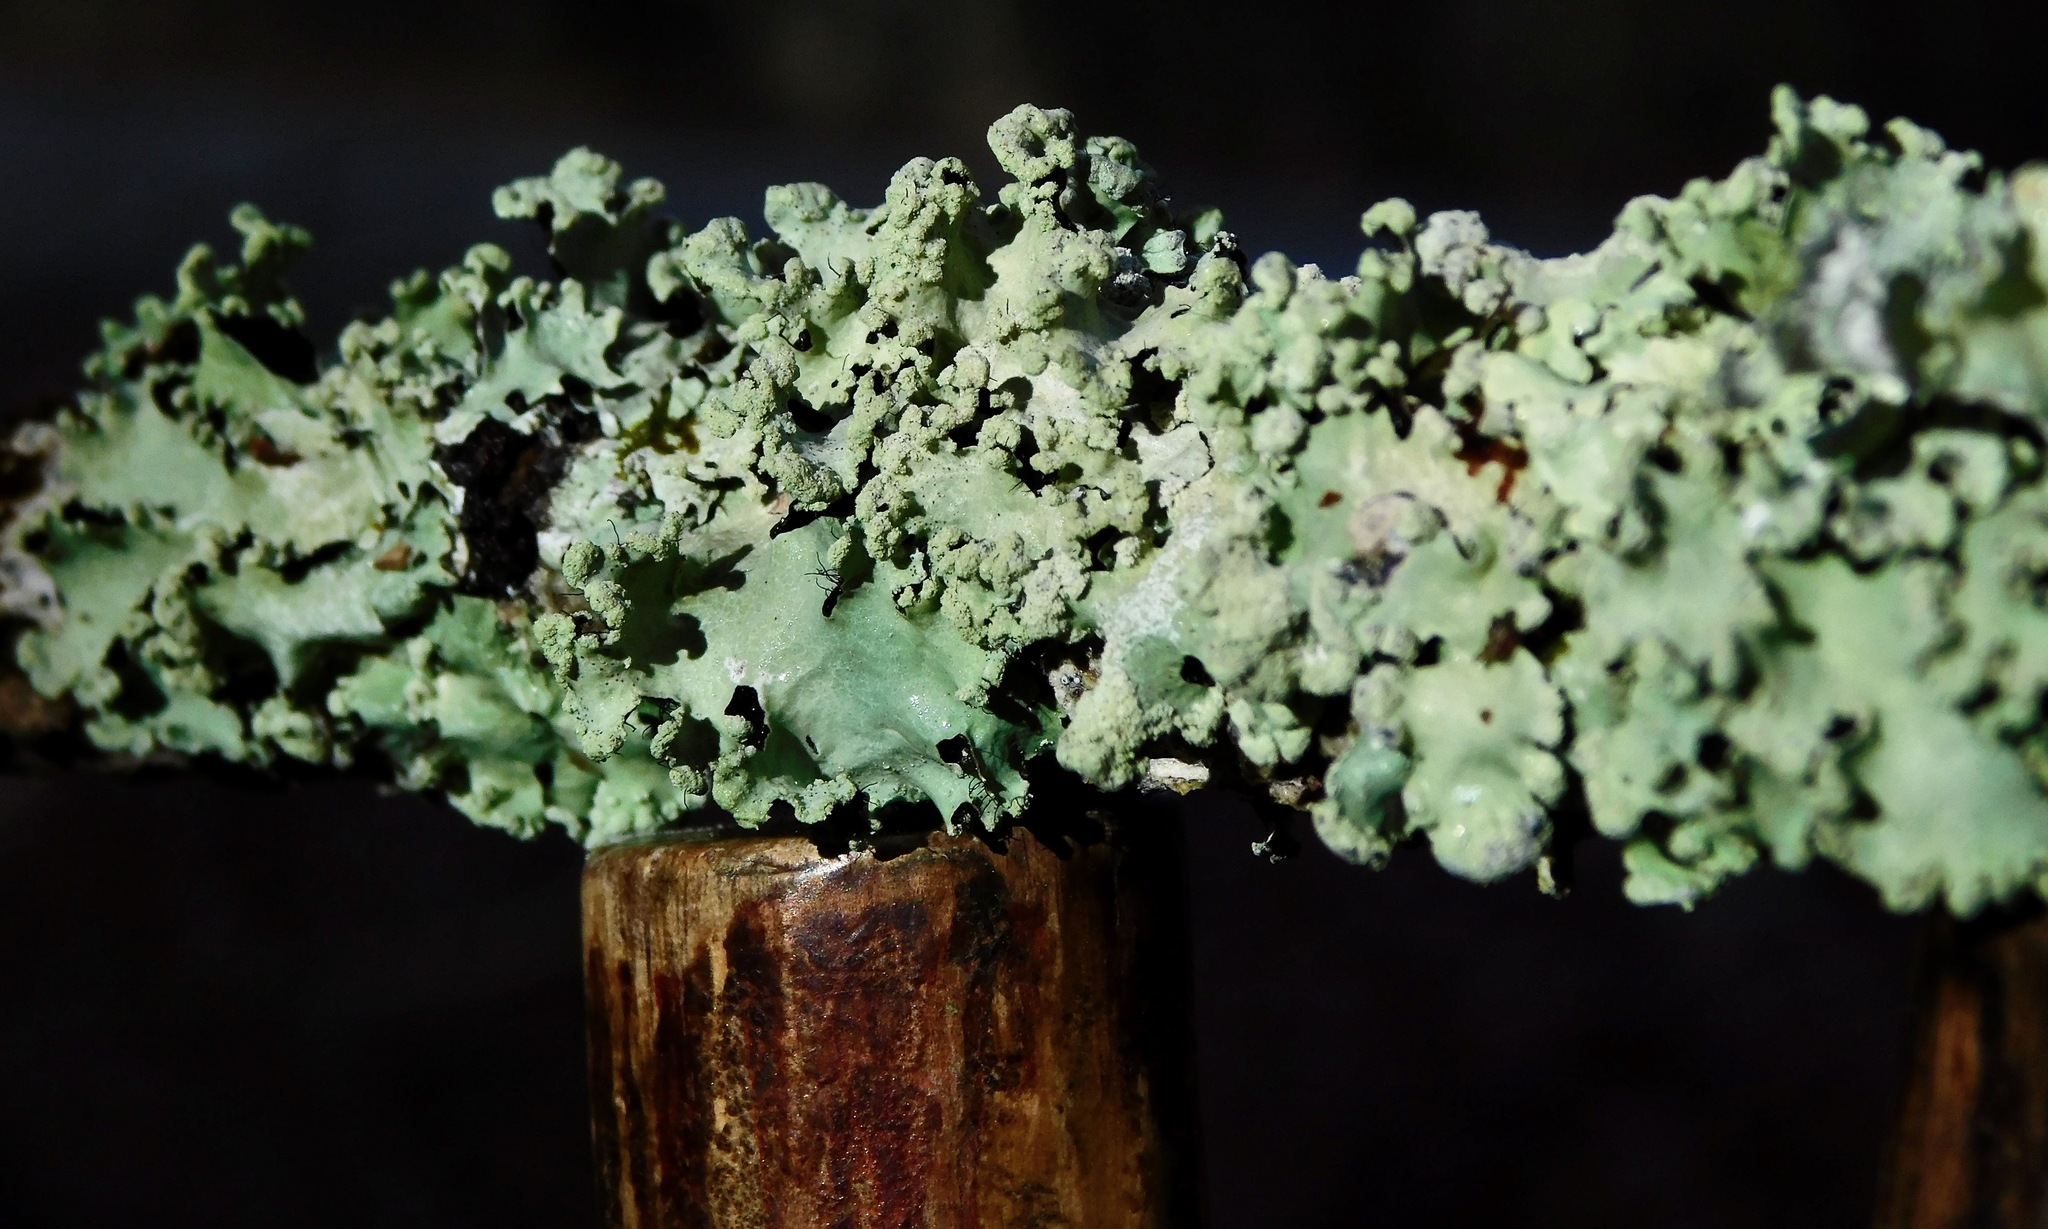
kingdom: Fungi
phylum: Ascomycota
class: Lecanoromycetes
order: Lecanorales
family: Parmeliaceae
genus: Parmotrema
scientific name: Parmotrema simulans
